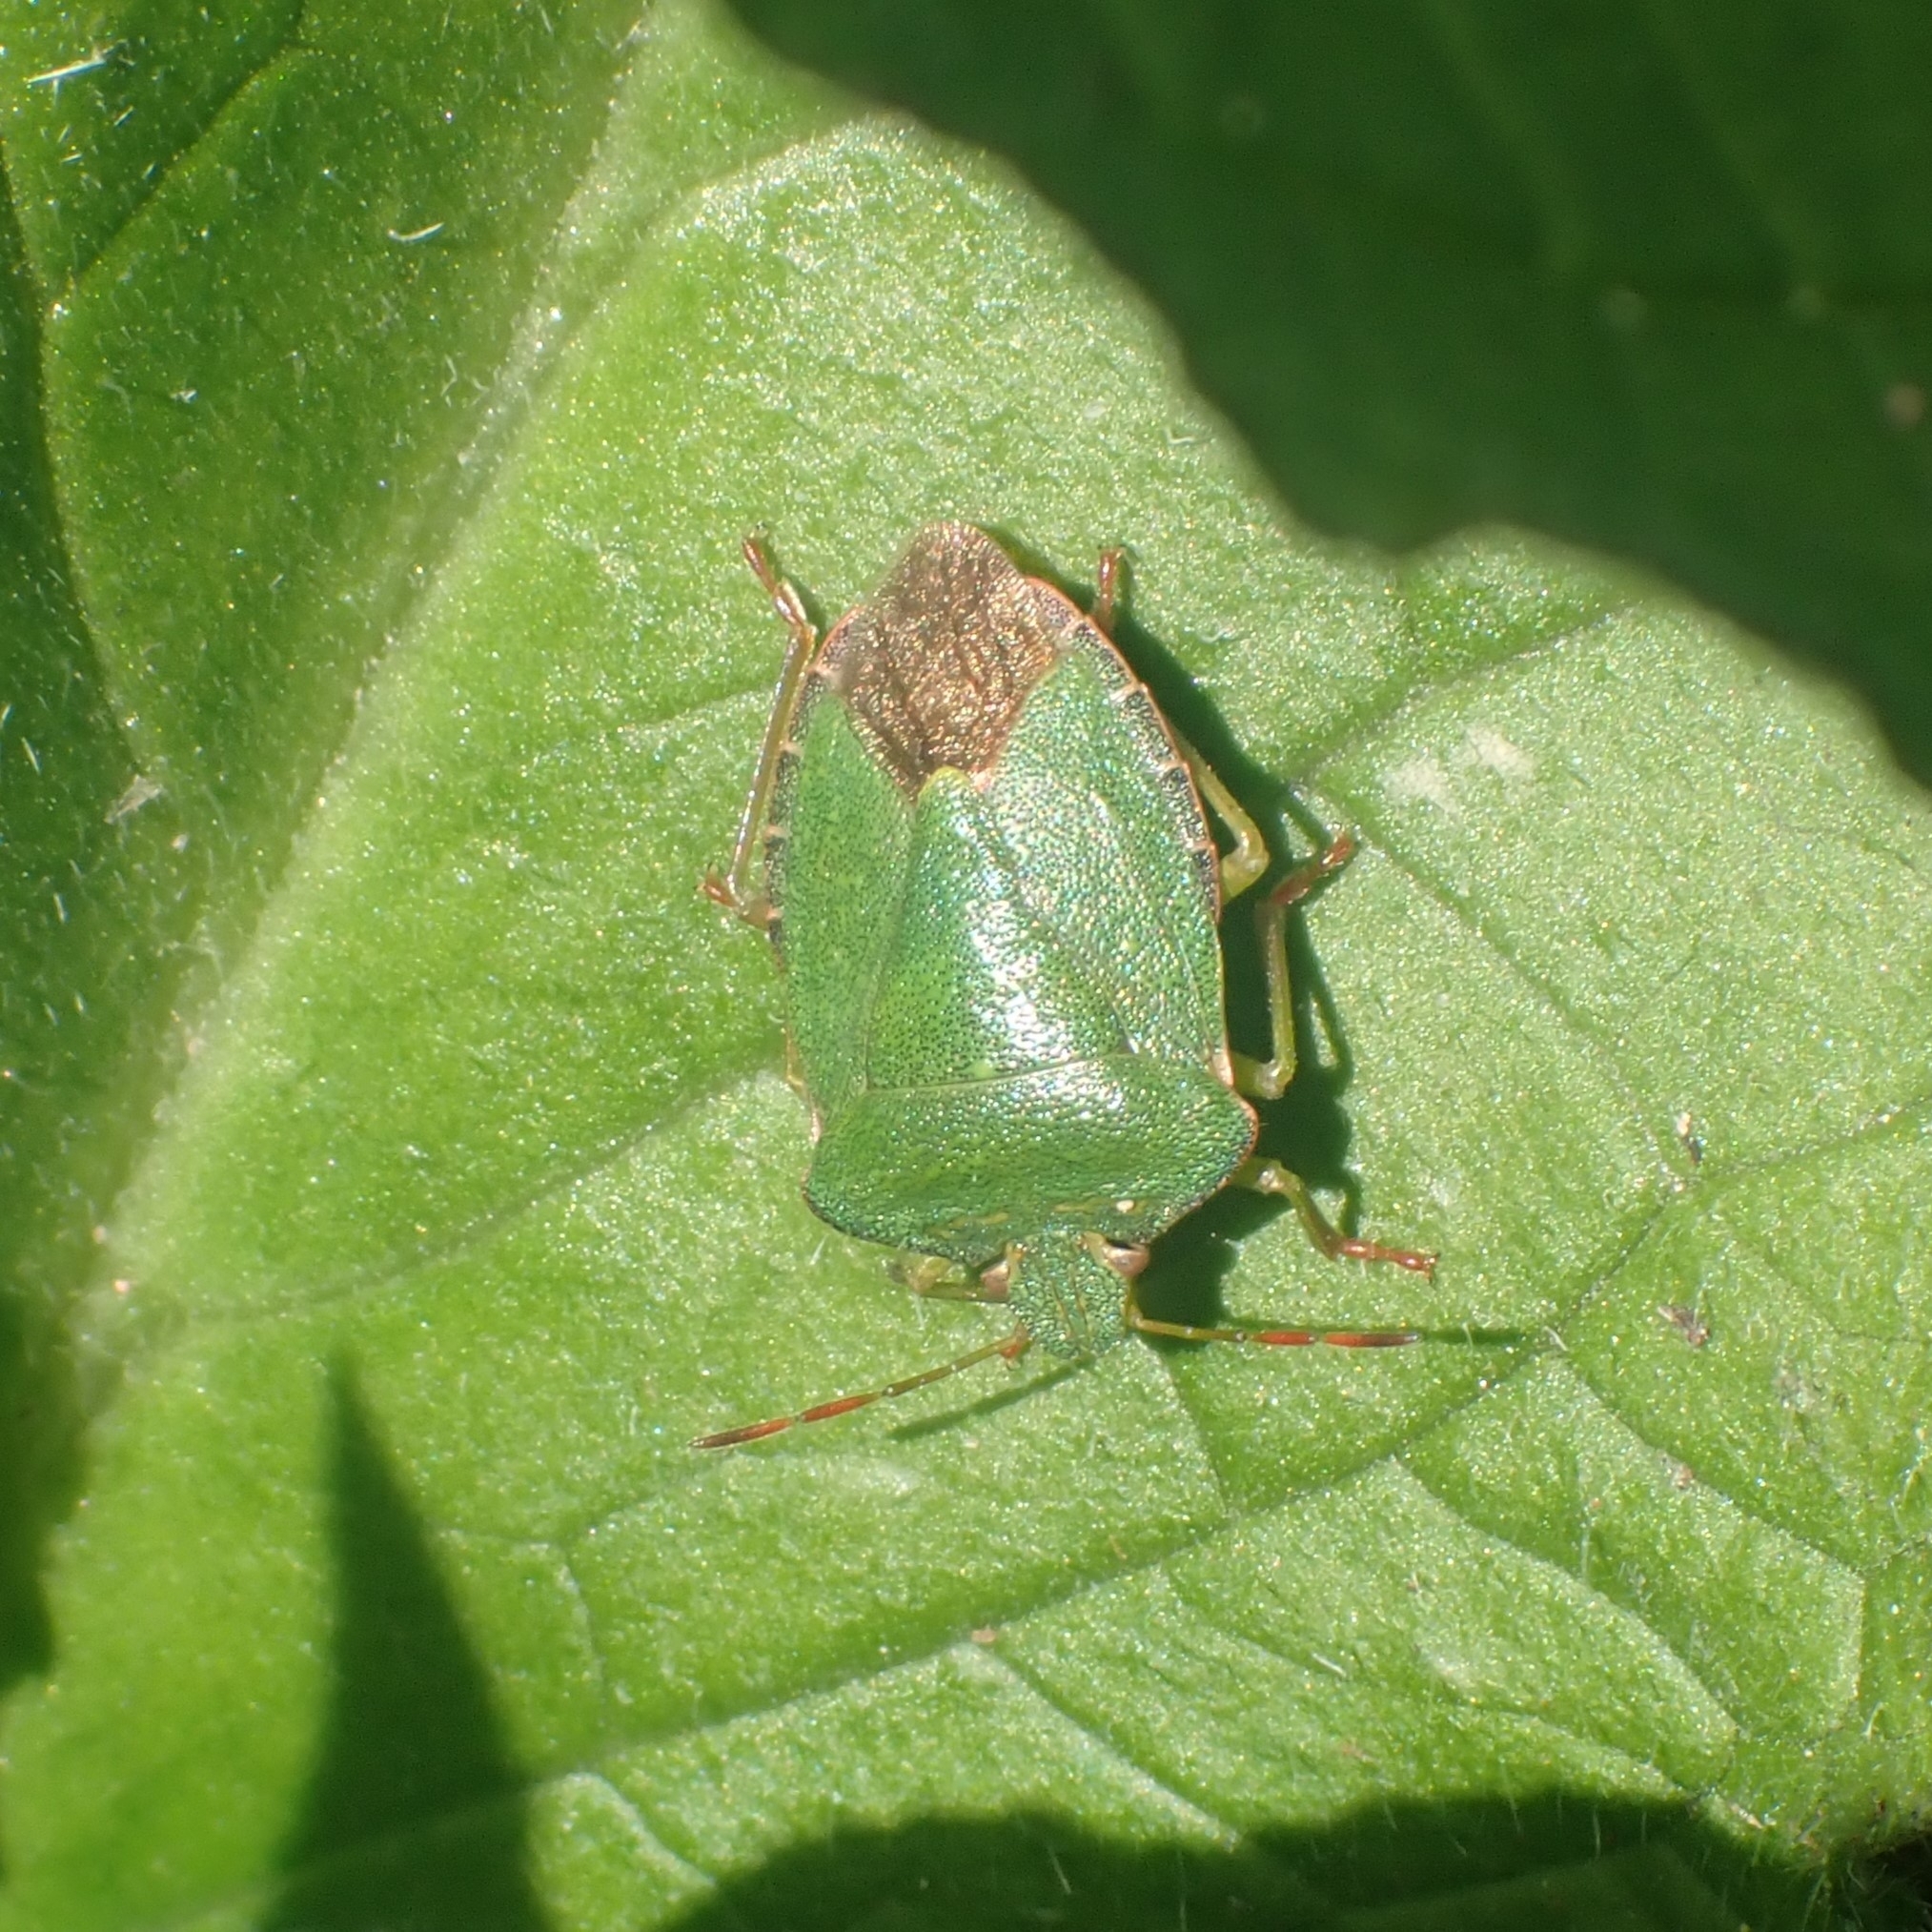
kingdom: Animalia
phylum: Arthropoda
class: Insecta
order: Hemiptera
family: Pentatomidae
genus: Palomena
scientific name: Palomena prasina
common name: Green shieldbug
